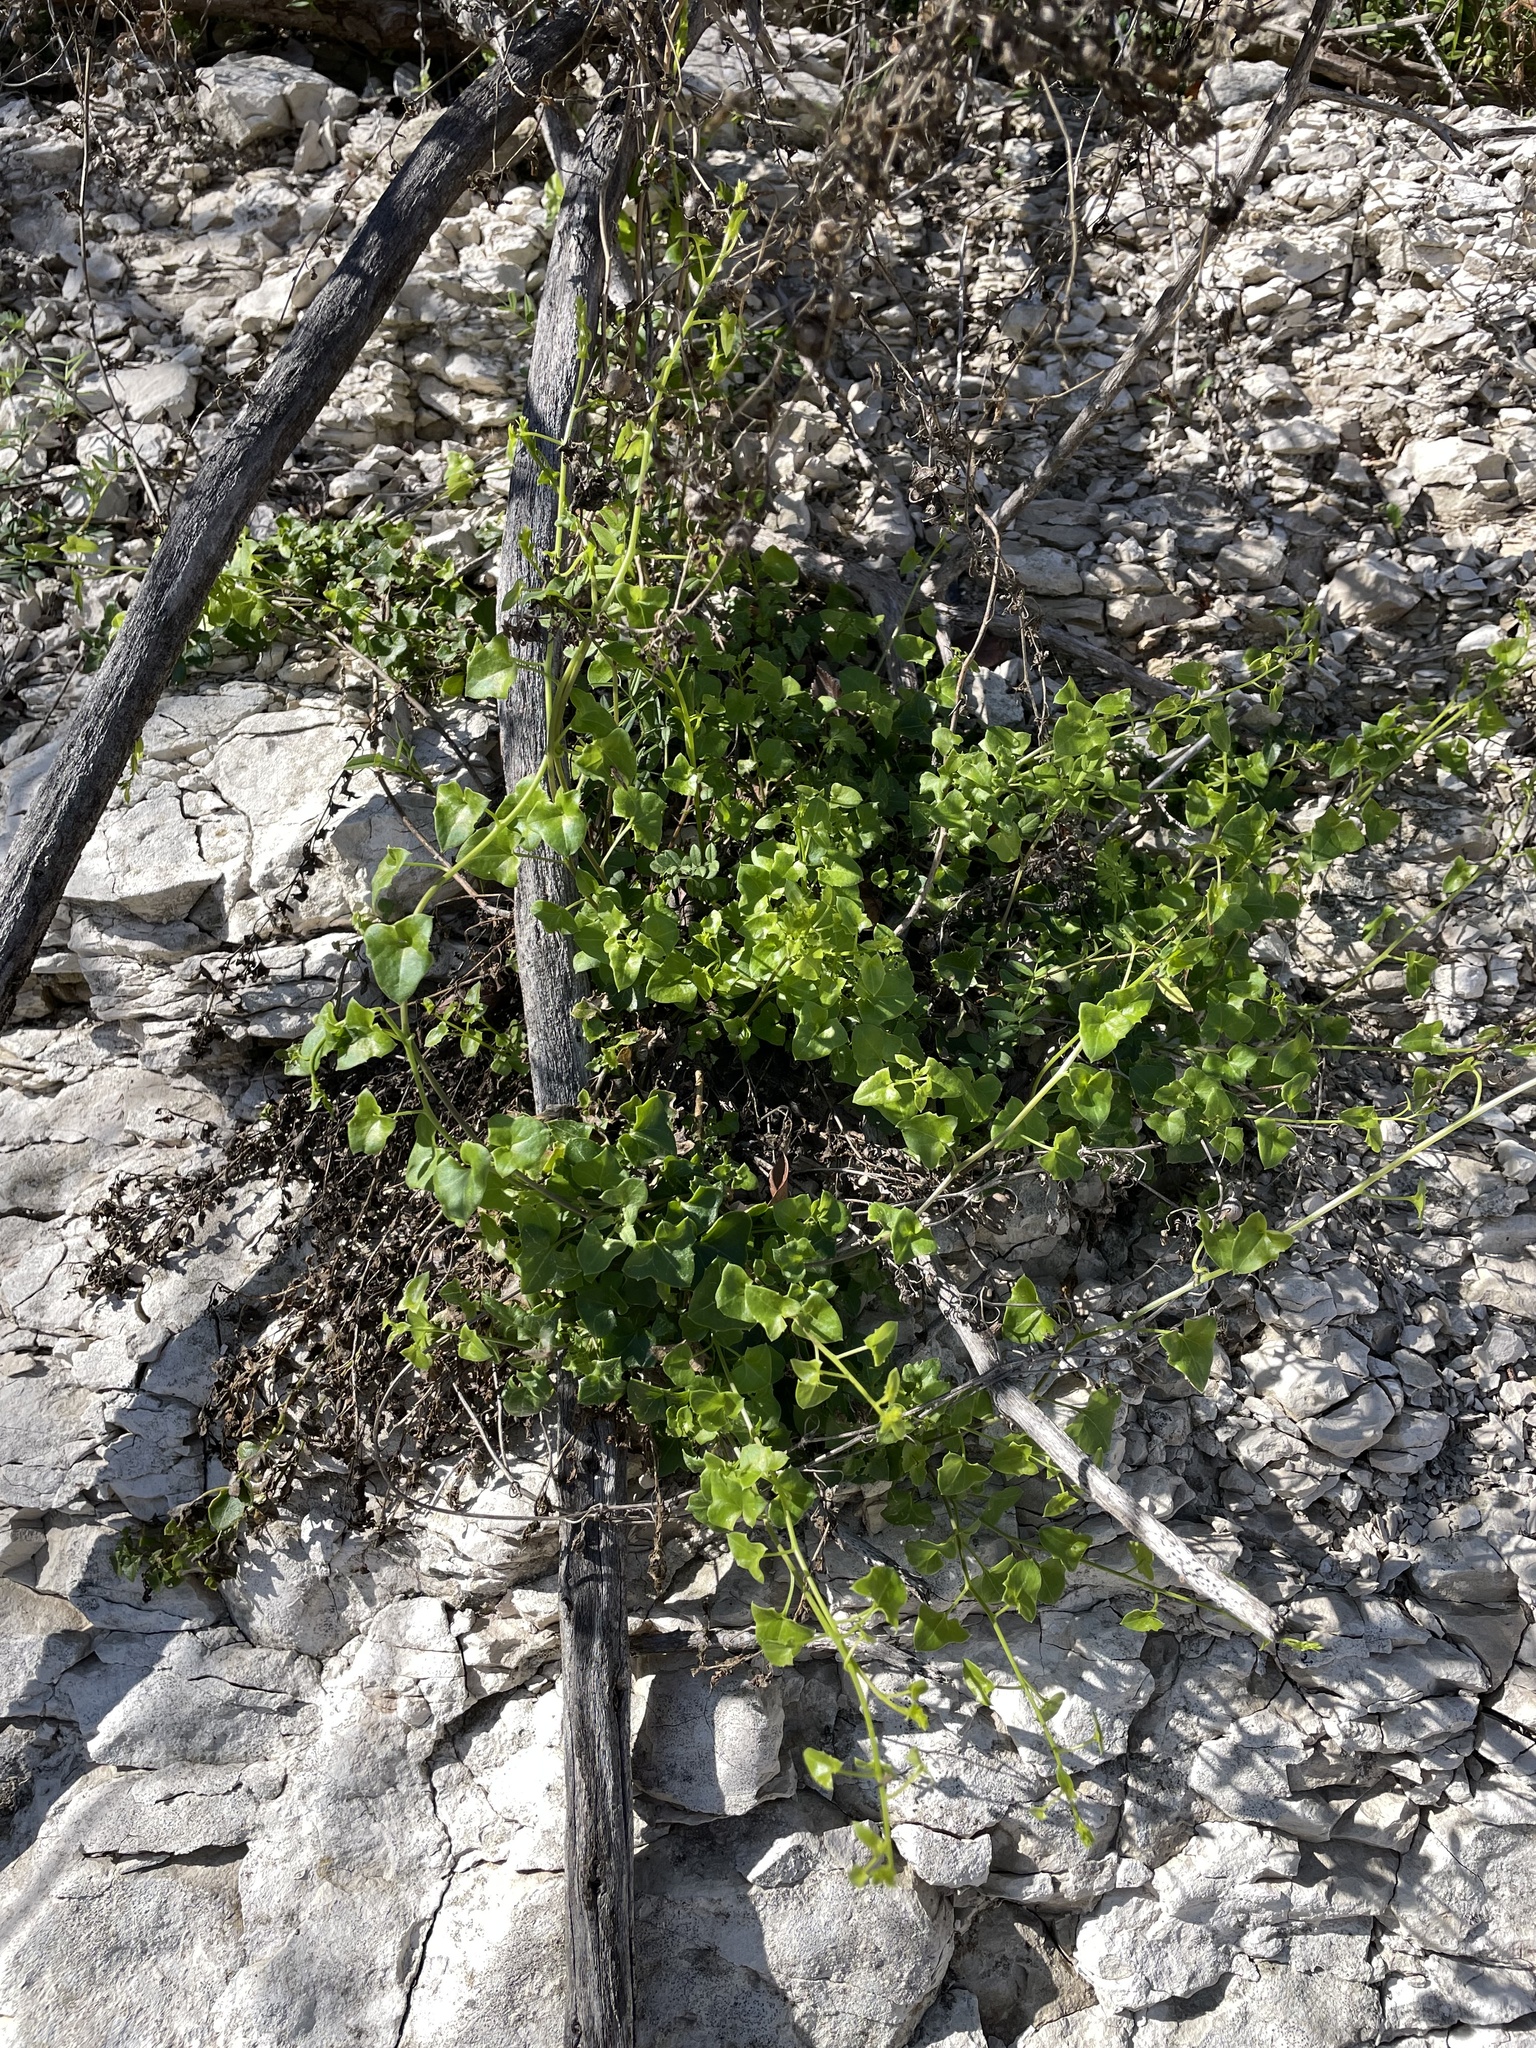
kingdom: Plantae
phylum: Tracheophyta
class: Magnoliopsida
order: Lamiales
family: Plantaginaceae
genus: Maurandella
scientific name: Maurandella antirrhiniflora
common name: Violet twining-snapdragon
